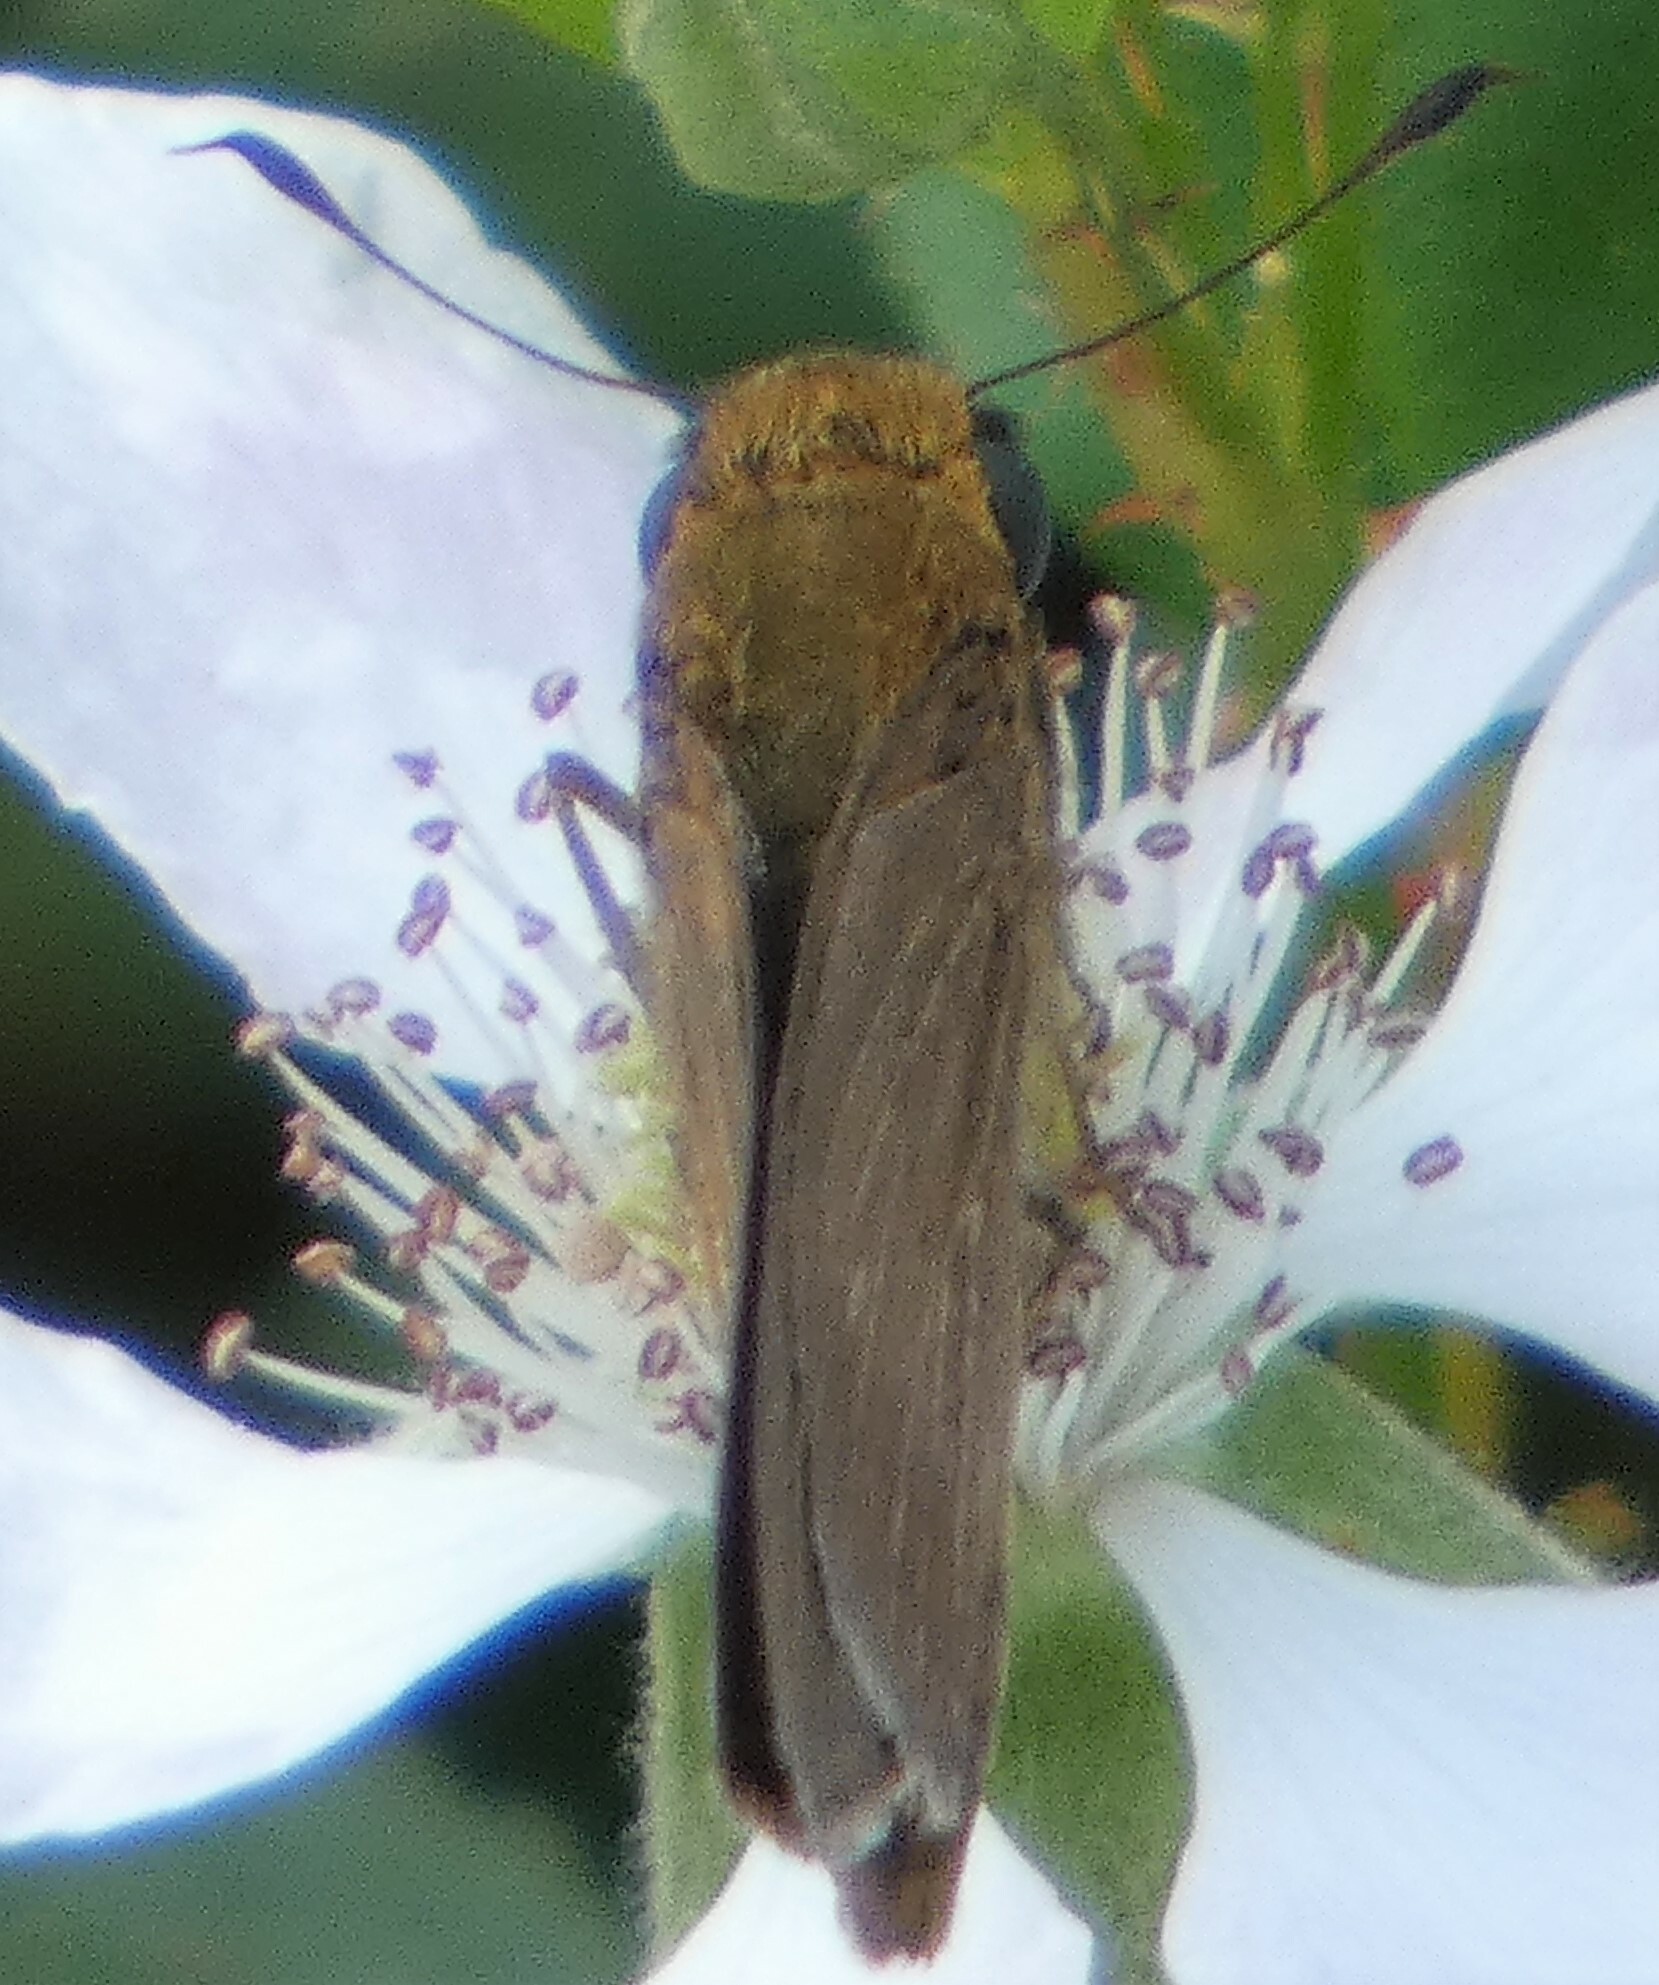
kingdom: Animalia
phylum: Arthropoda
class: Insecta
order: Lepidoptera
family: Hesperiidae
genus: Panoquina
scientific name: Panoquina ocola
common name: Ocola skipper
